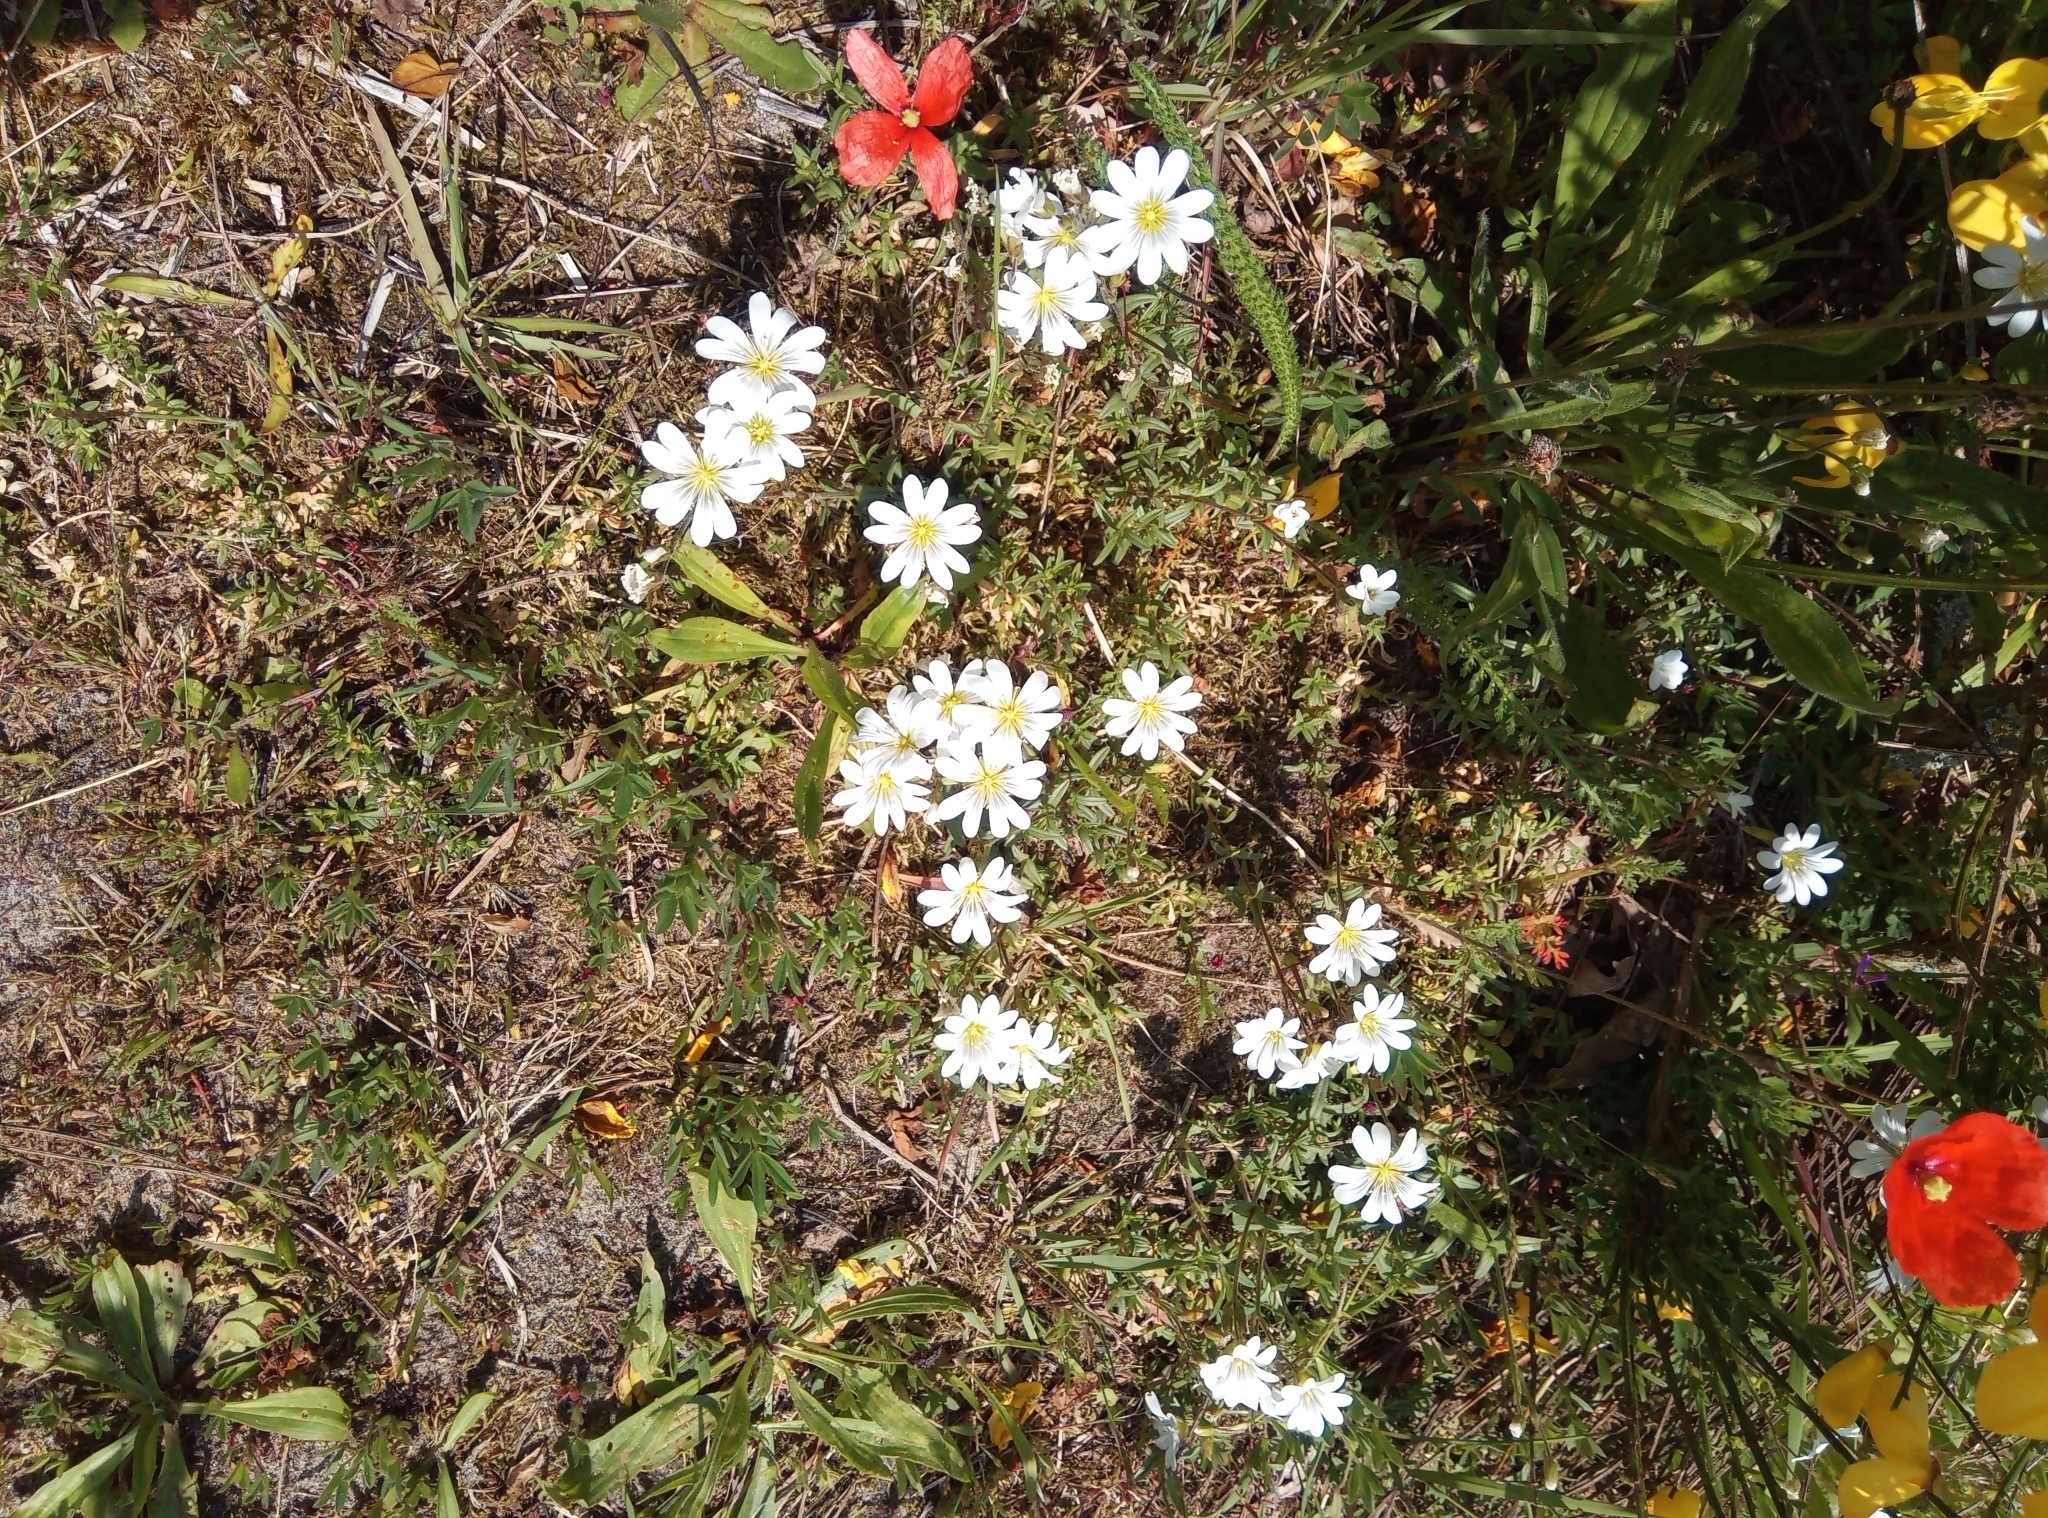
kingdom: Plantae
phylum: Tracheophyta
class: Magnoliopsida
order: Caryophyllales
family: Caryophyllaceae
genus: Cerastium
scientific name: Cerastium arvense
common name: Field mouse-ear
